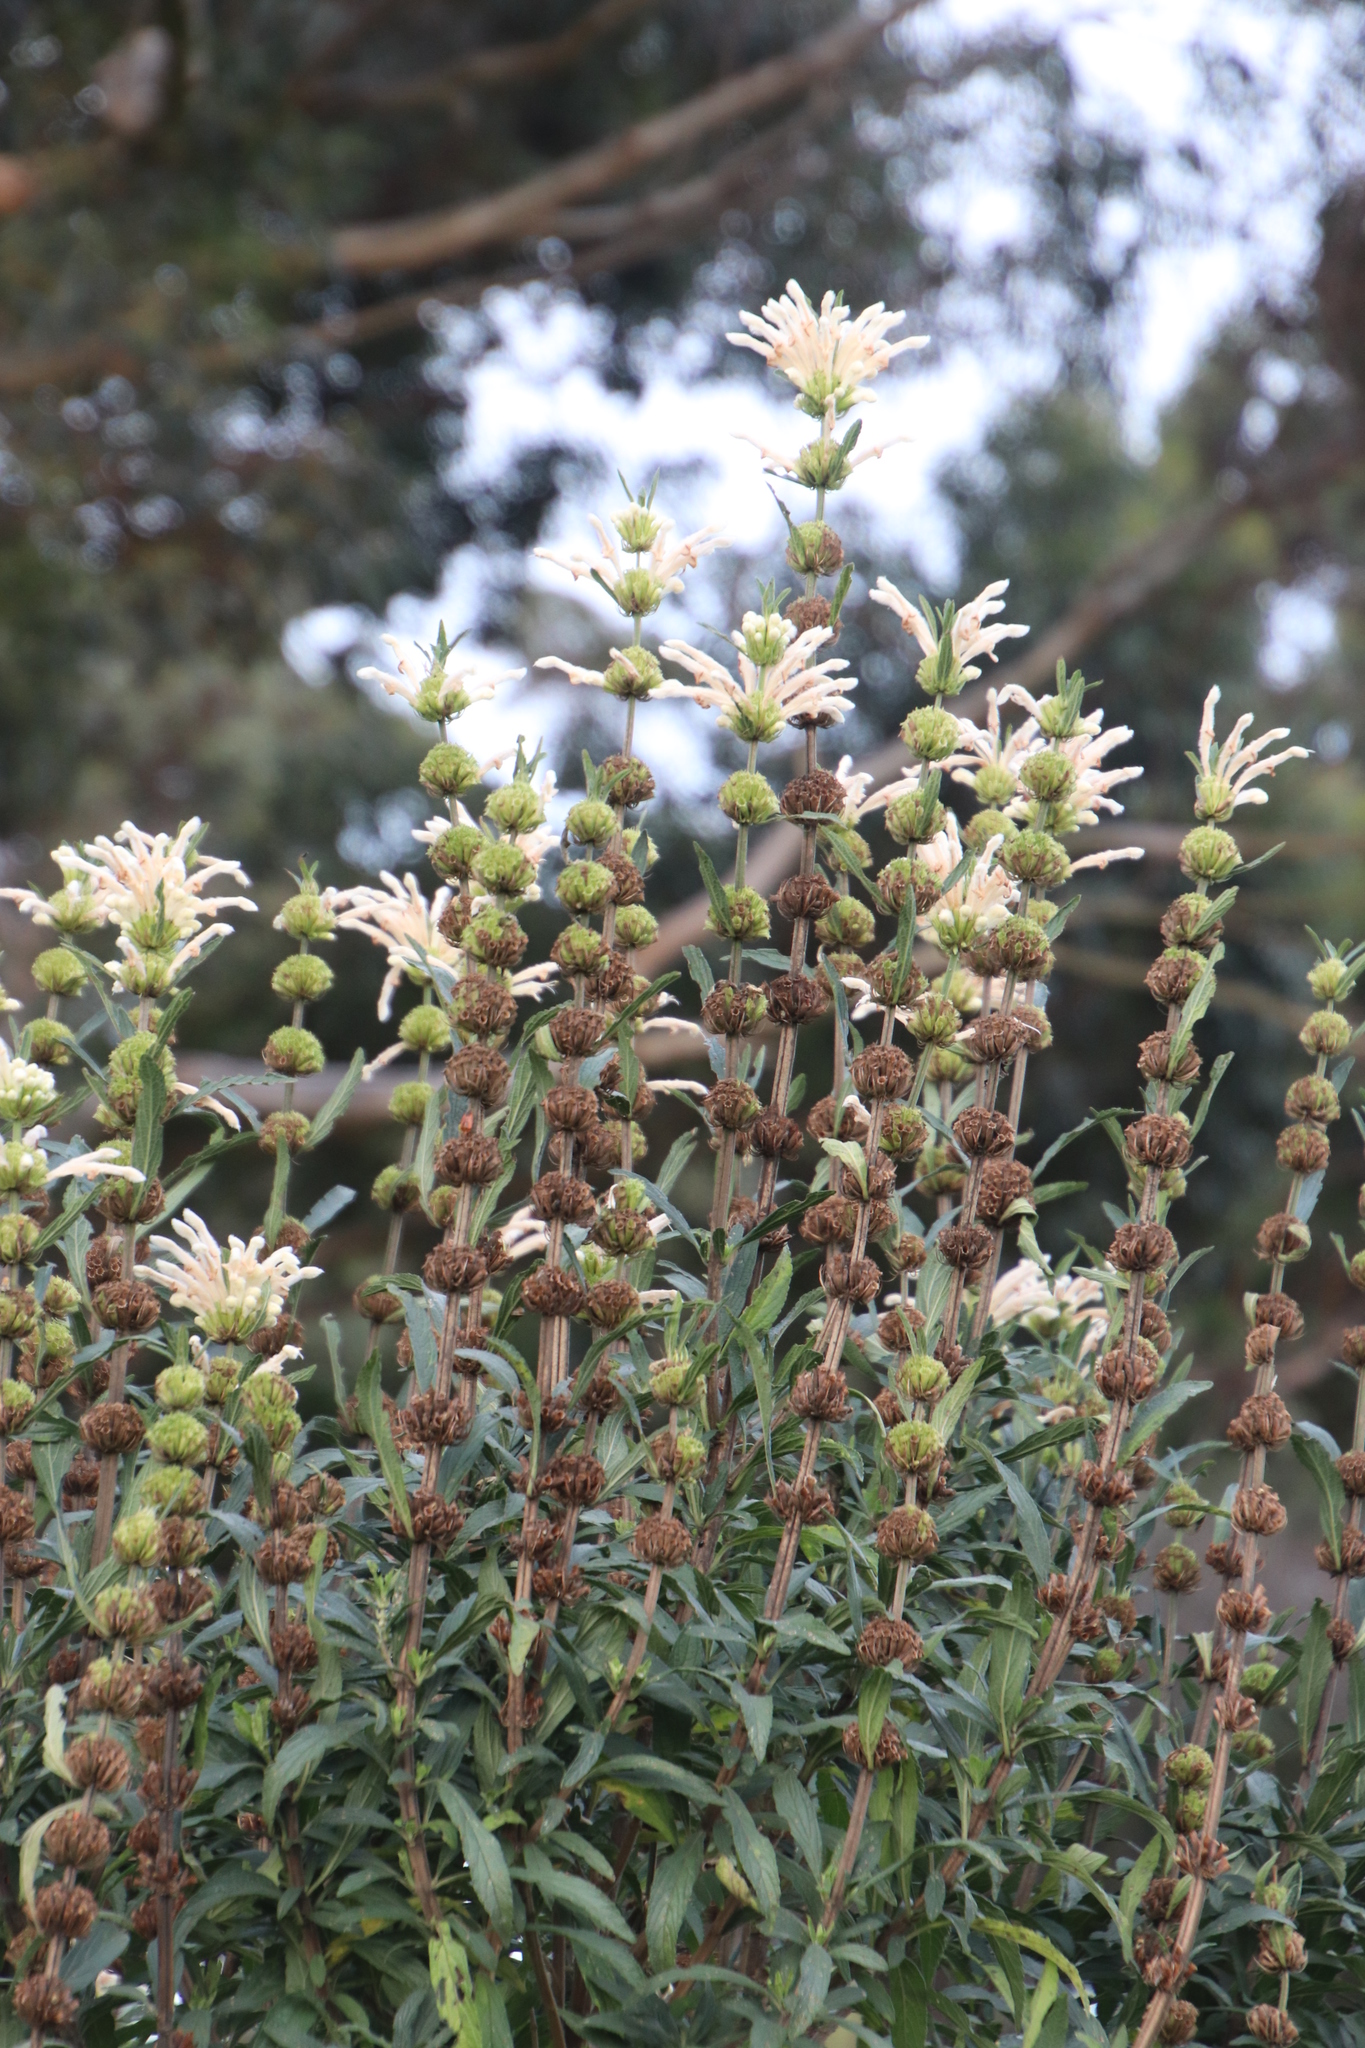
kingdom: Plantae
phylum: Tracheophyta
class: Magnoliopsida
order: Lamiales
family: Lamiaceae
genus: Leonotis
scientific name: Leonotis leonurus
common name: Lion's ear
